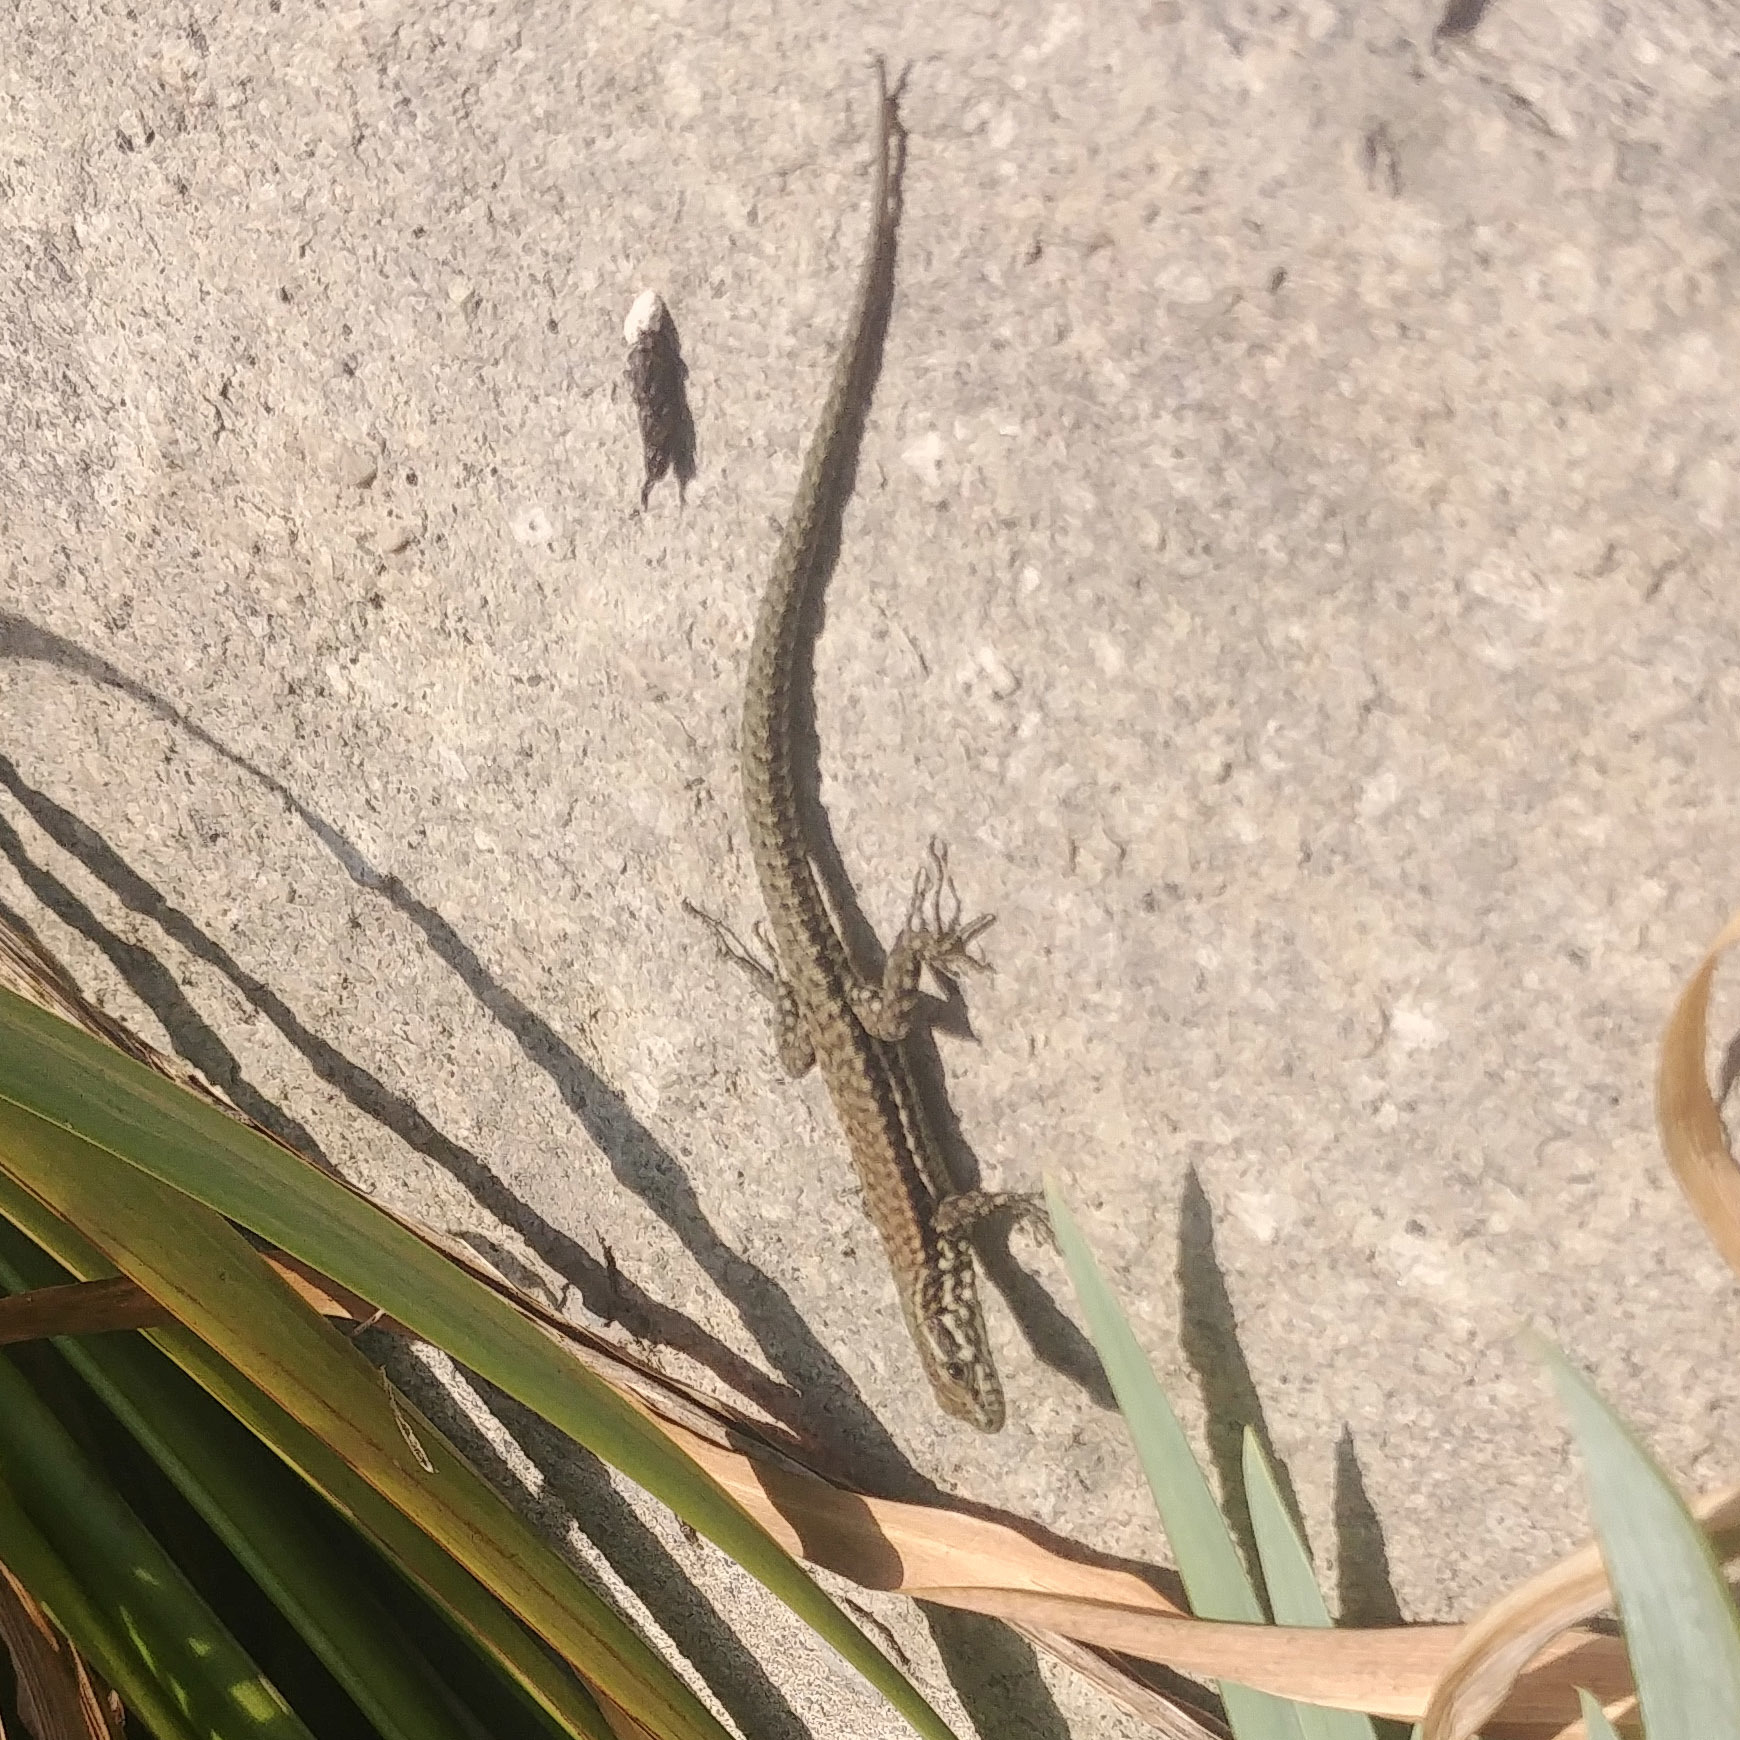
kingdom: Animalia
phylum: Chordata
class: Squamata
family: Lacertidae
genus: Podarcis
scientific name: Podarcis muralis
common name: Common wall lizard
